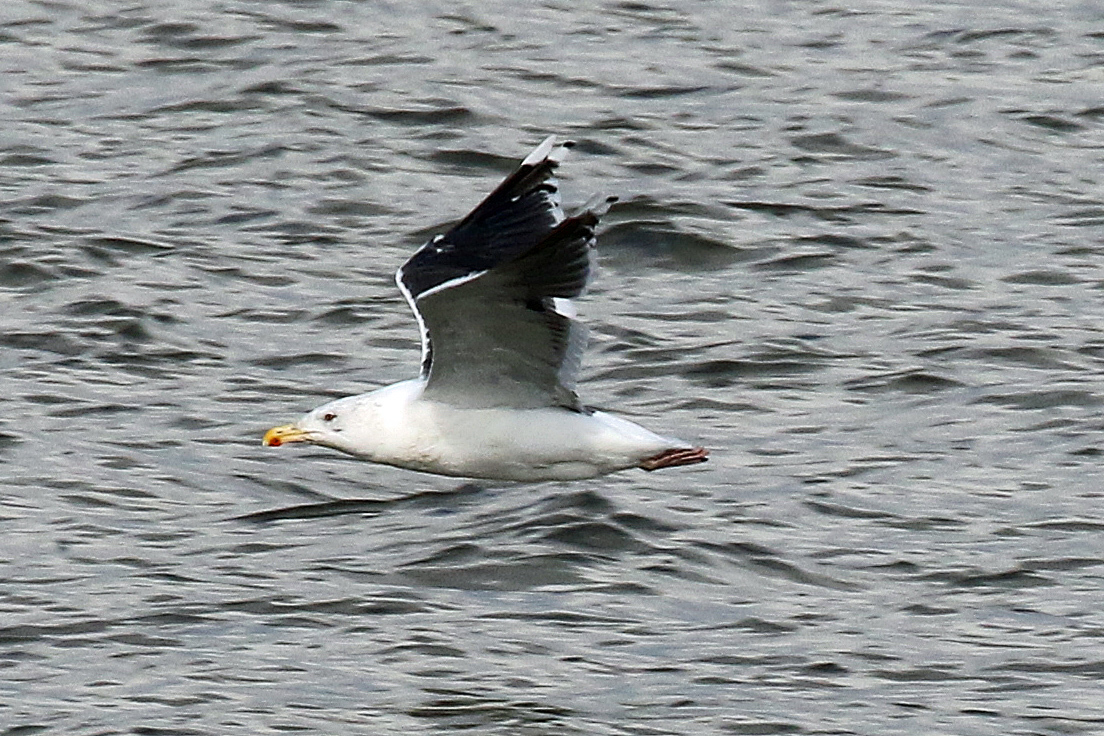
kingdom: Animalia
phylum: Chordata
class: Aves
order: Charadriiformes
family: Laridae
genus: Larus
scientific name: Larus marinus
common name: Great black-backed gull
